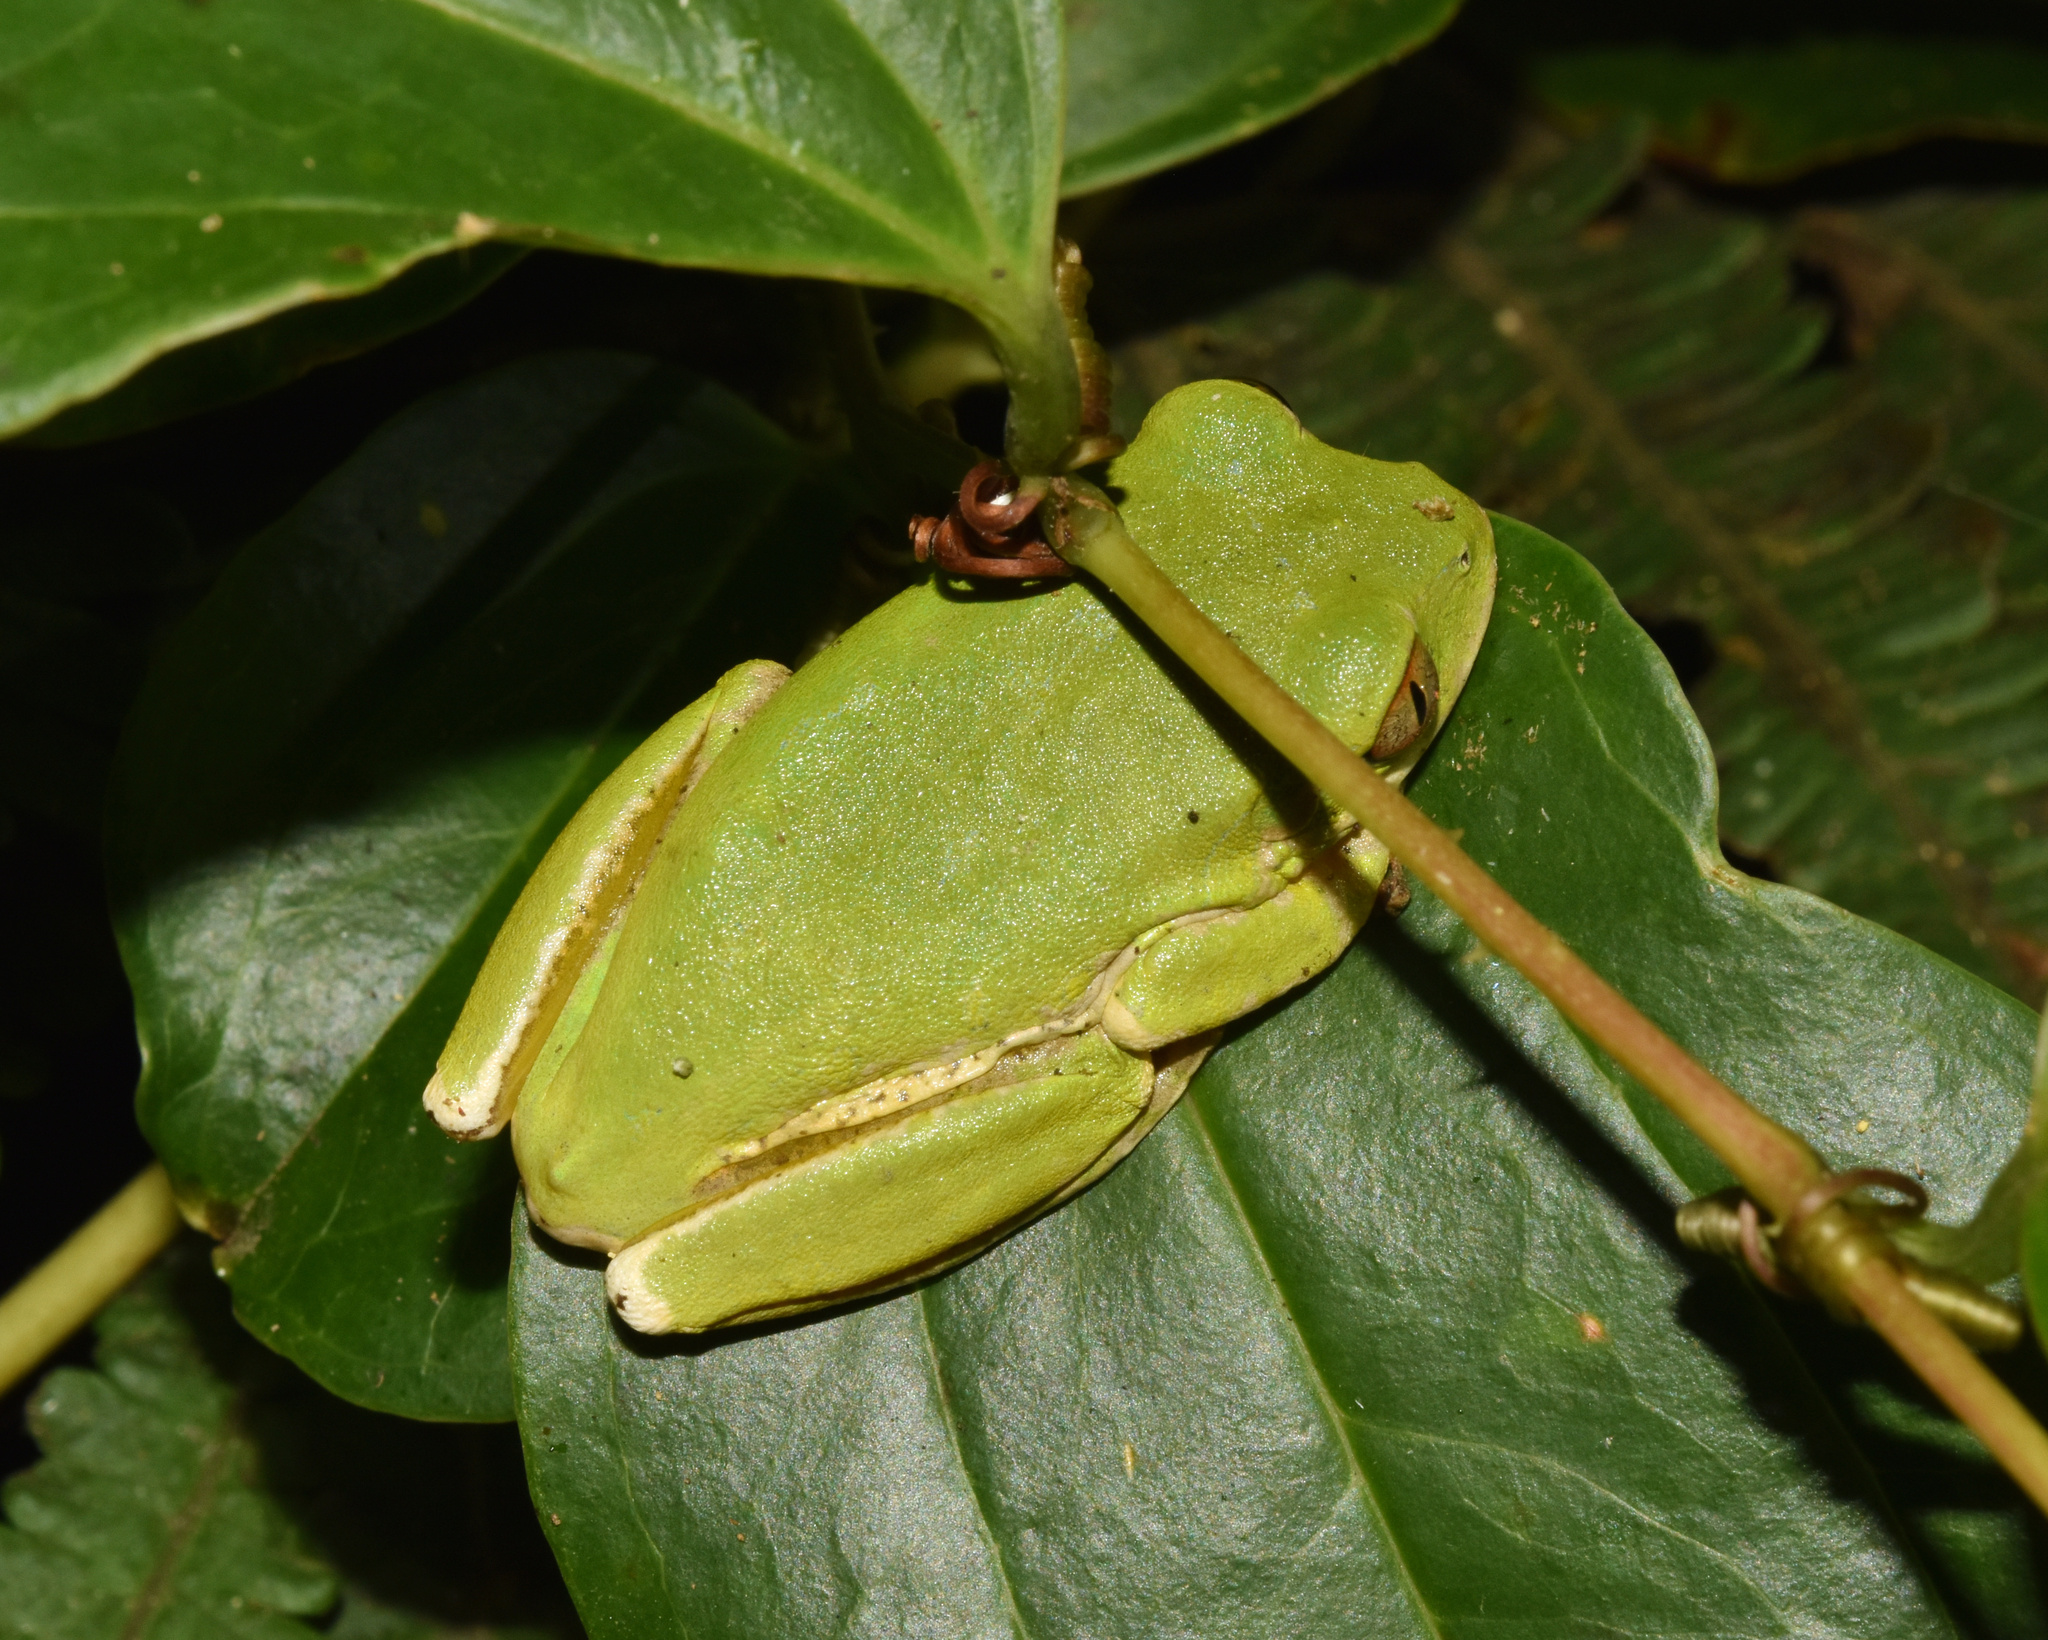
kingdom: Animalia
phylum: Chordata
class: Amphibia
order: Anura
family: Arthroleptidae
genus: Leptopelis
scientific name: Leptopelis natalensis
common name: Natal tree frog
